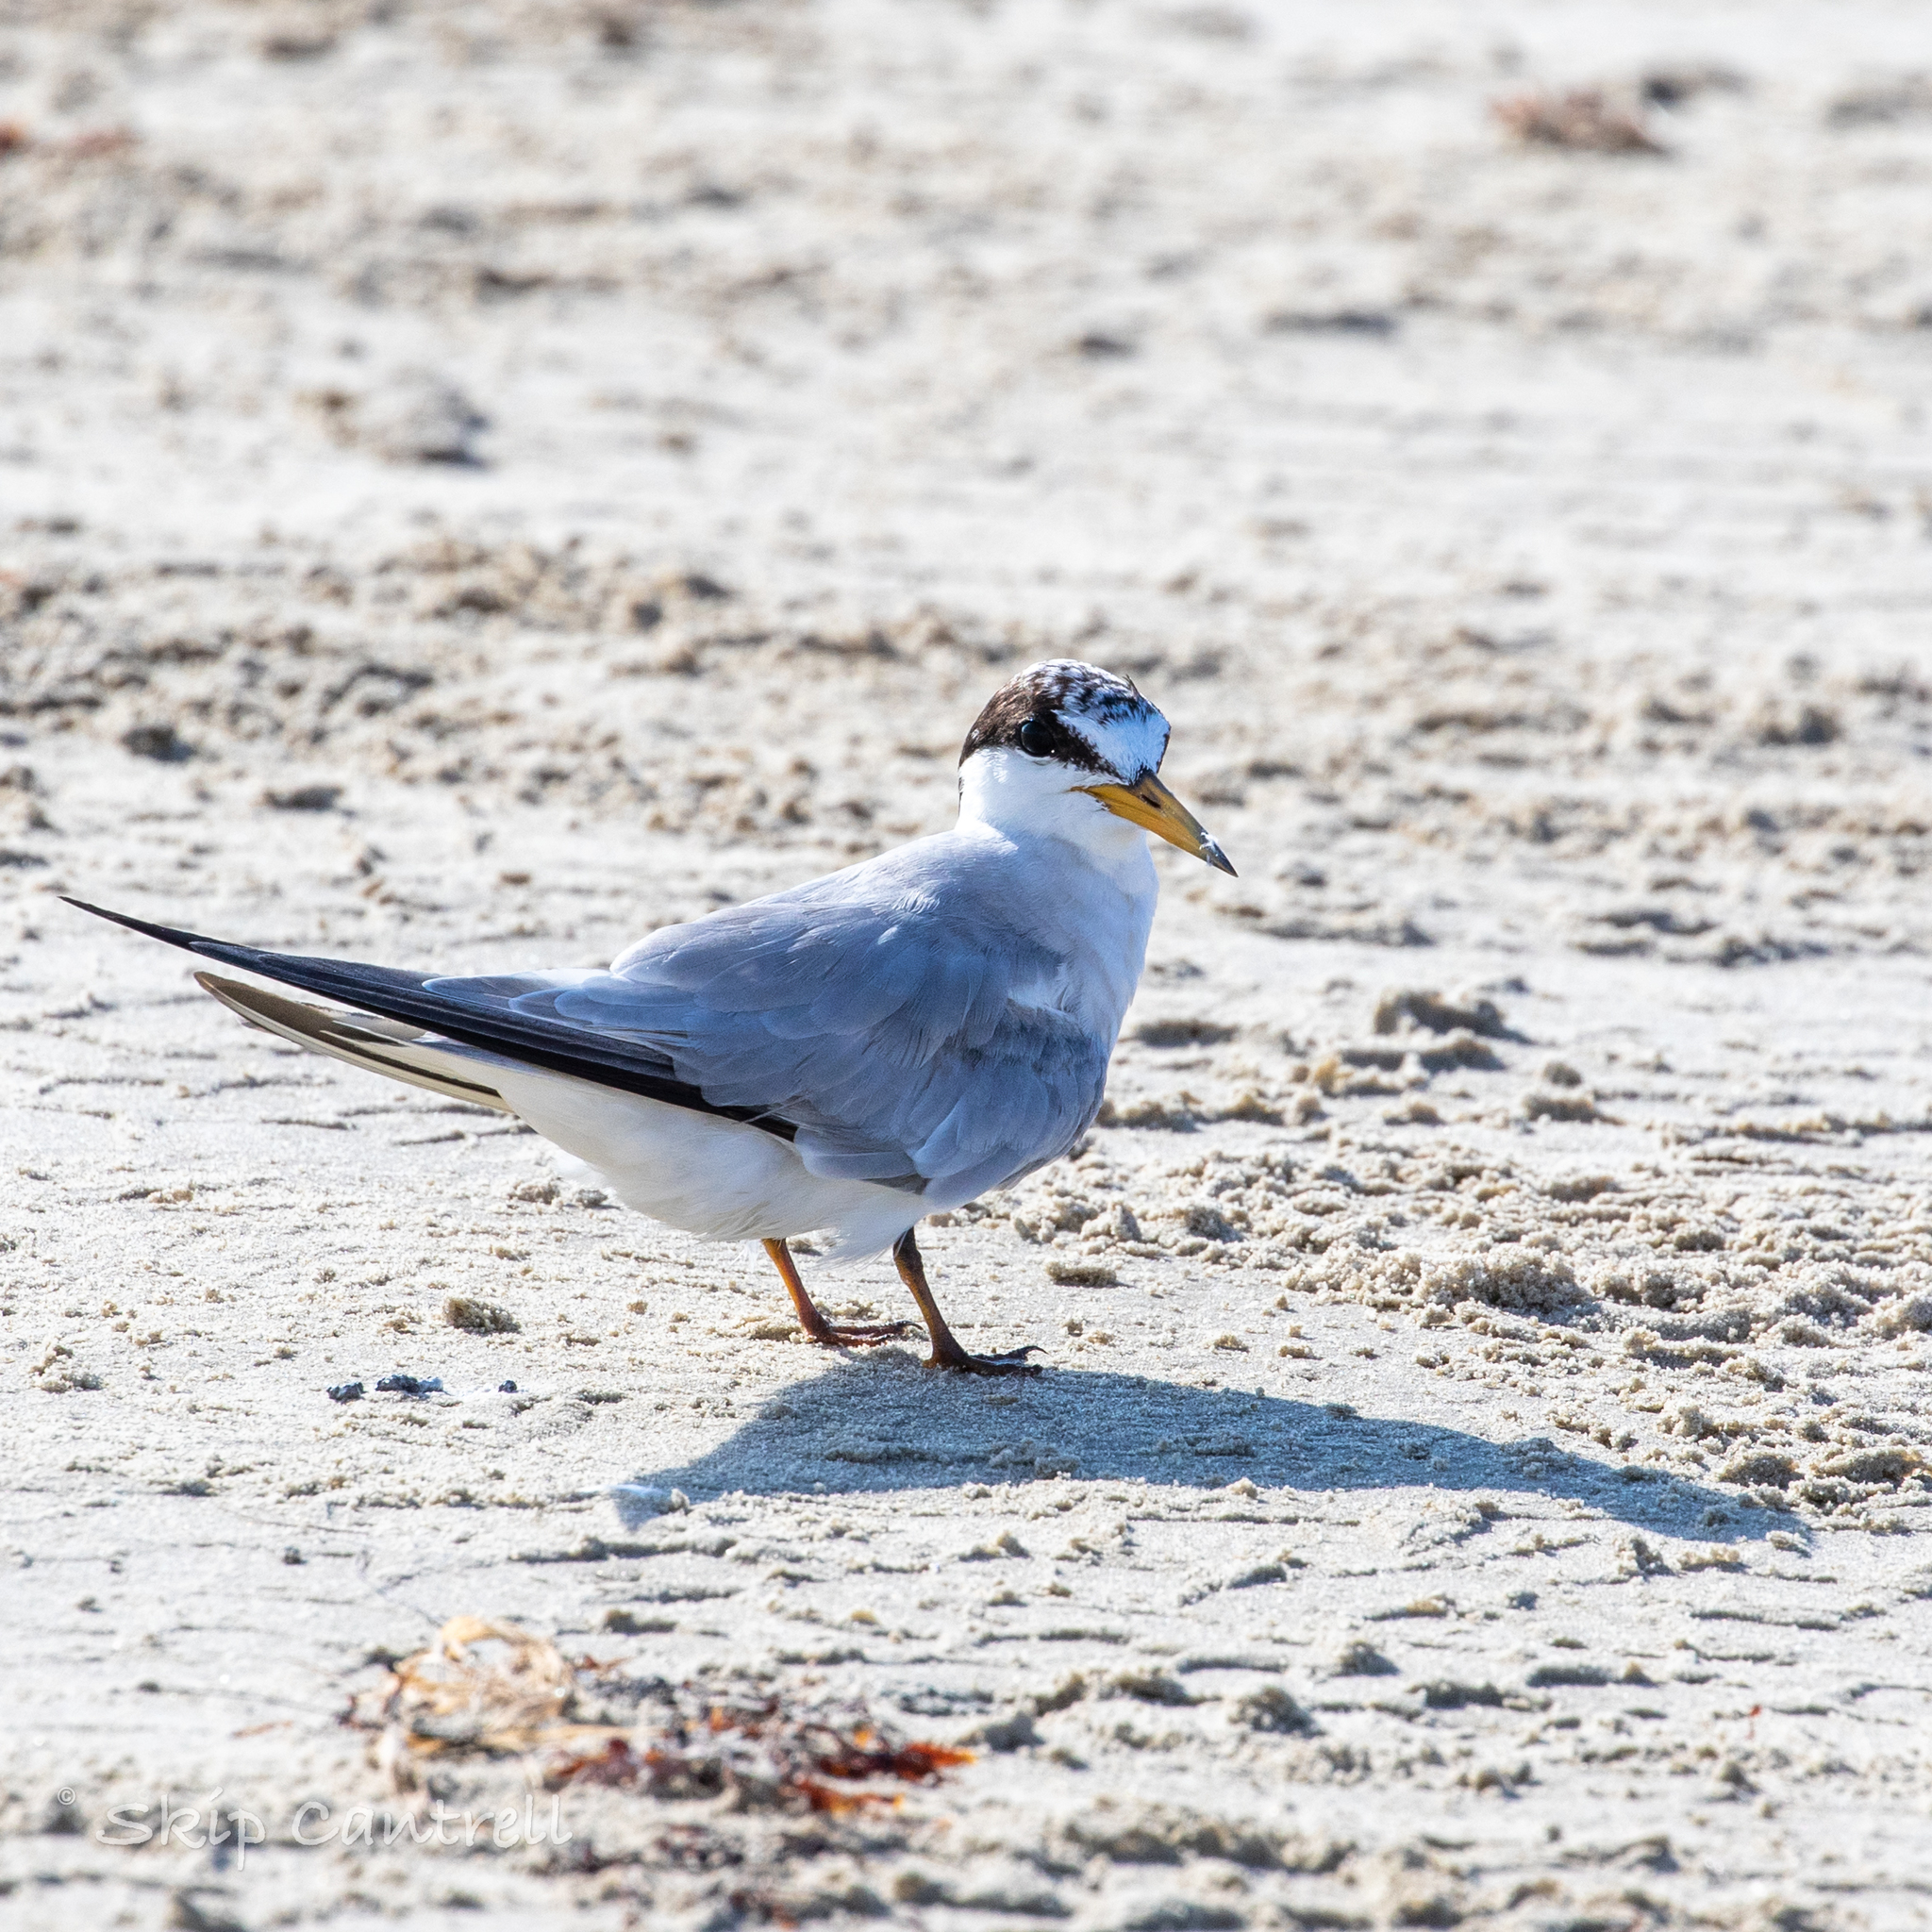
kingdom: Animalia
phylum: Chordata
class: Aves
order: Charadriiformes
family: Laridae
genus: Sternula
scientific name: Sternula antillarum
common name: Least tern
